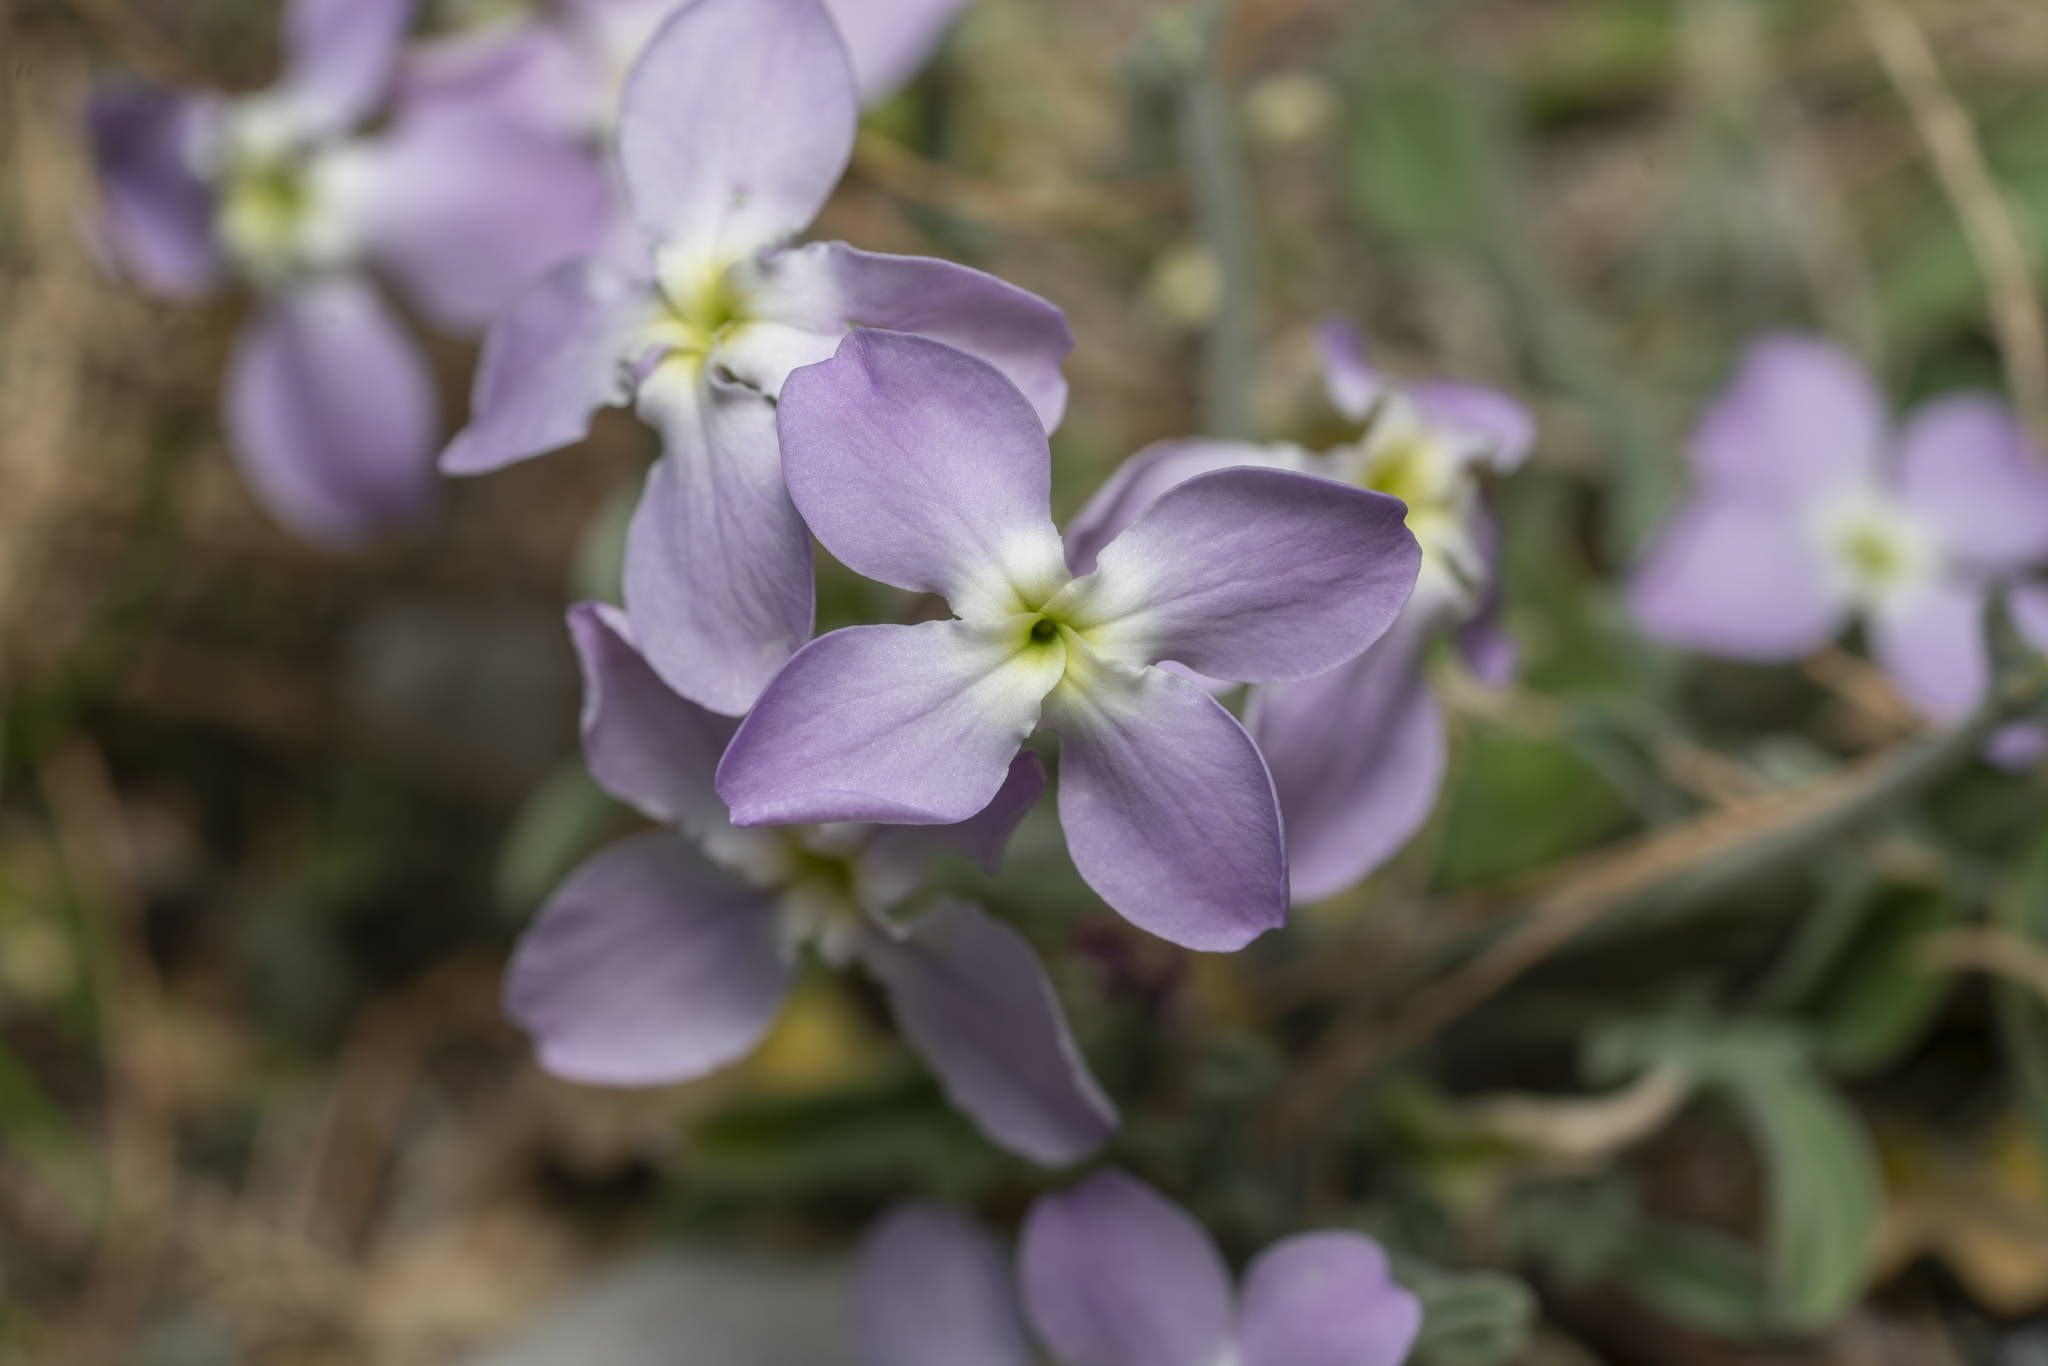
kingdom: Plantae
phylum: Tracheophyta
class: Magnoliopsida
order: Brassicales
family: Brassicaceae
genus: Matthiola
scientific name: Matthiola longipetala
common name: Night-scented stock
